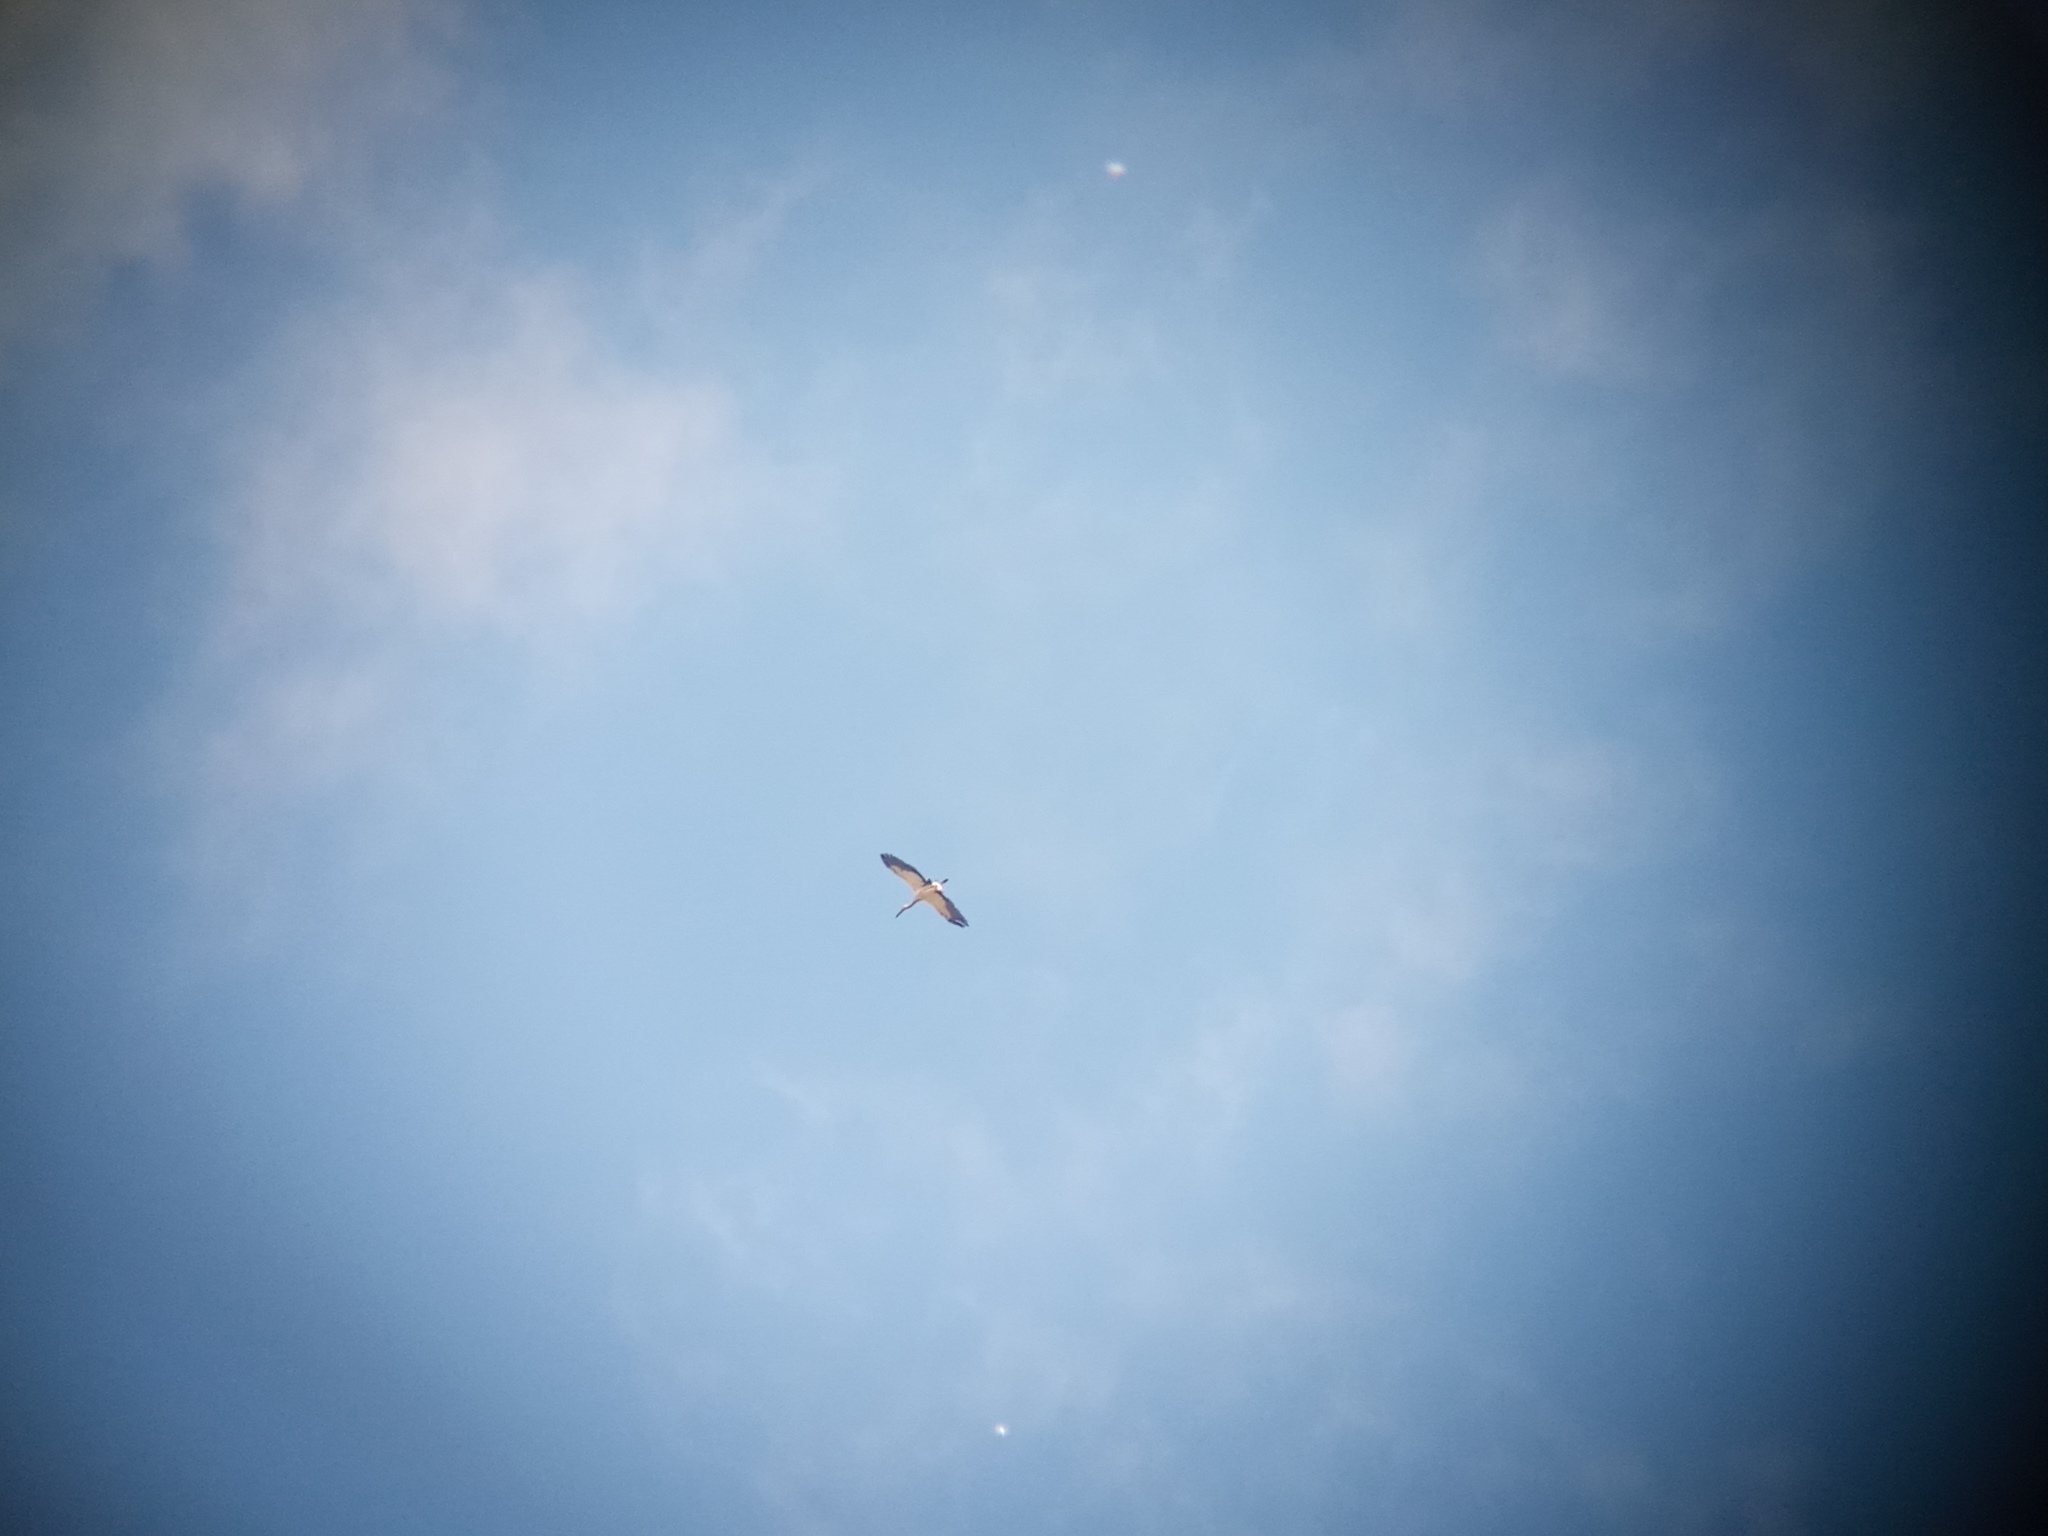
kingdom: Animalia
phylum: Chordata
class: Aves
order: Ciconiiformes
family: Ciconiidae
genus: Ciconia
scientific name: Ciconia maguari
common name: Maguari stork
